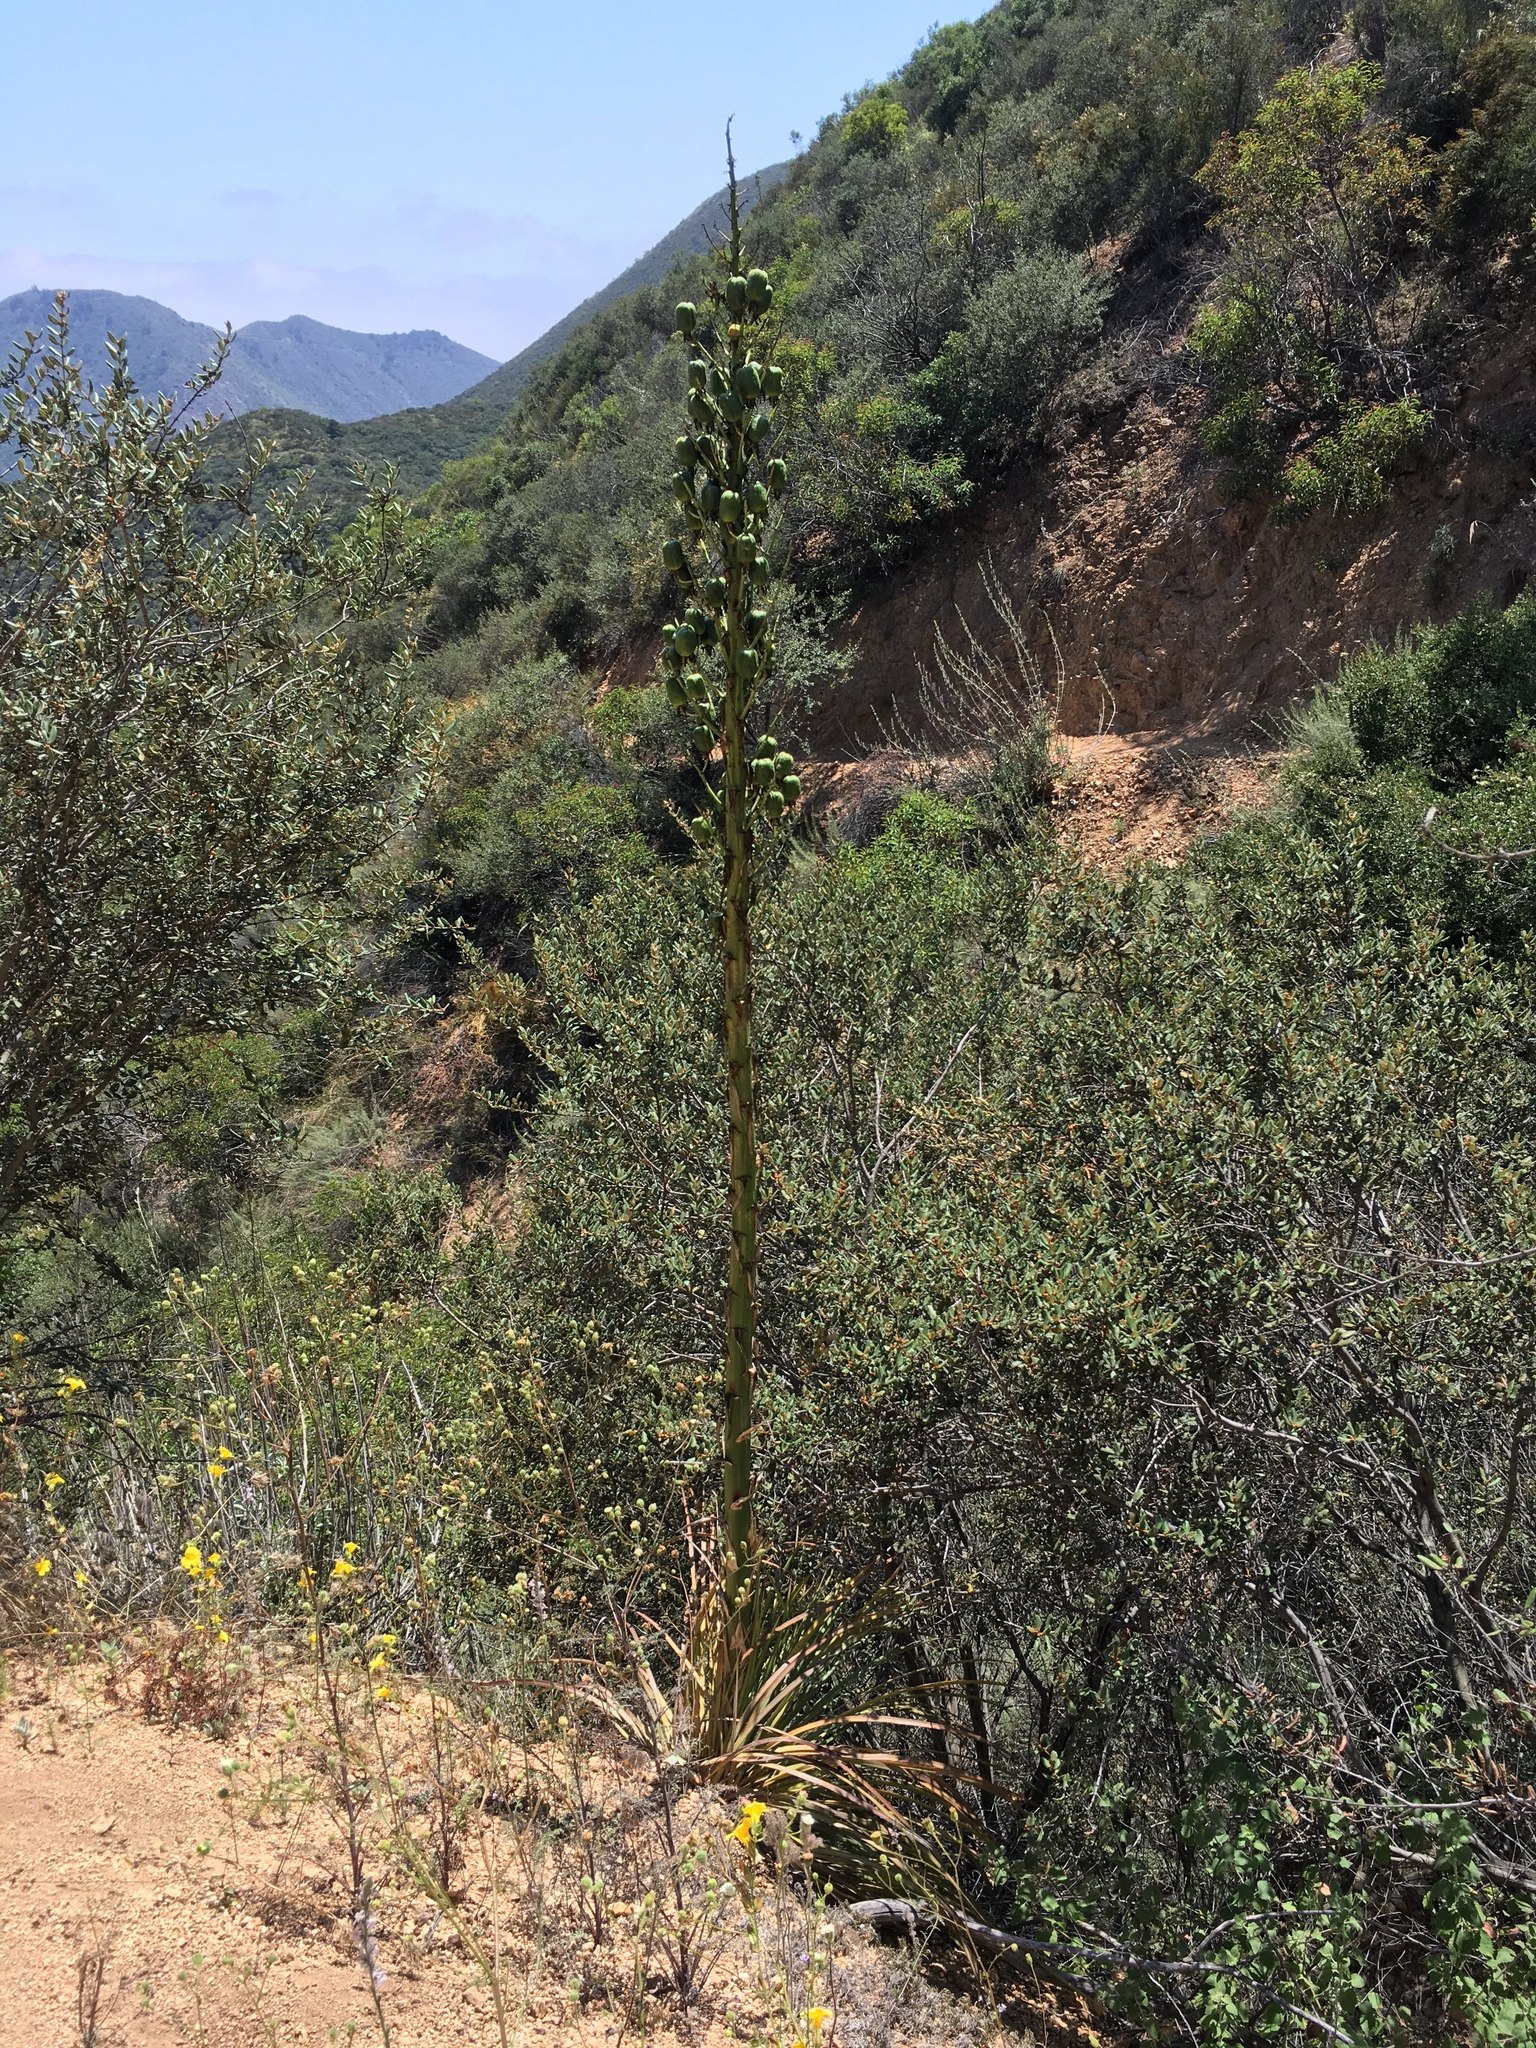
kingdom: Plantae
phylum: Tracheophyta
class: Liliopsida
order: Asparagales
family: Asparagaceae
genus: Hesperoyucca
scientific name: Hesperoyucca whipplei
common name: Our lord's-candle
